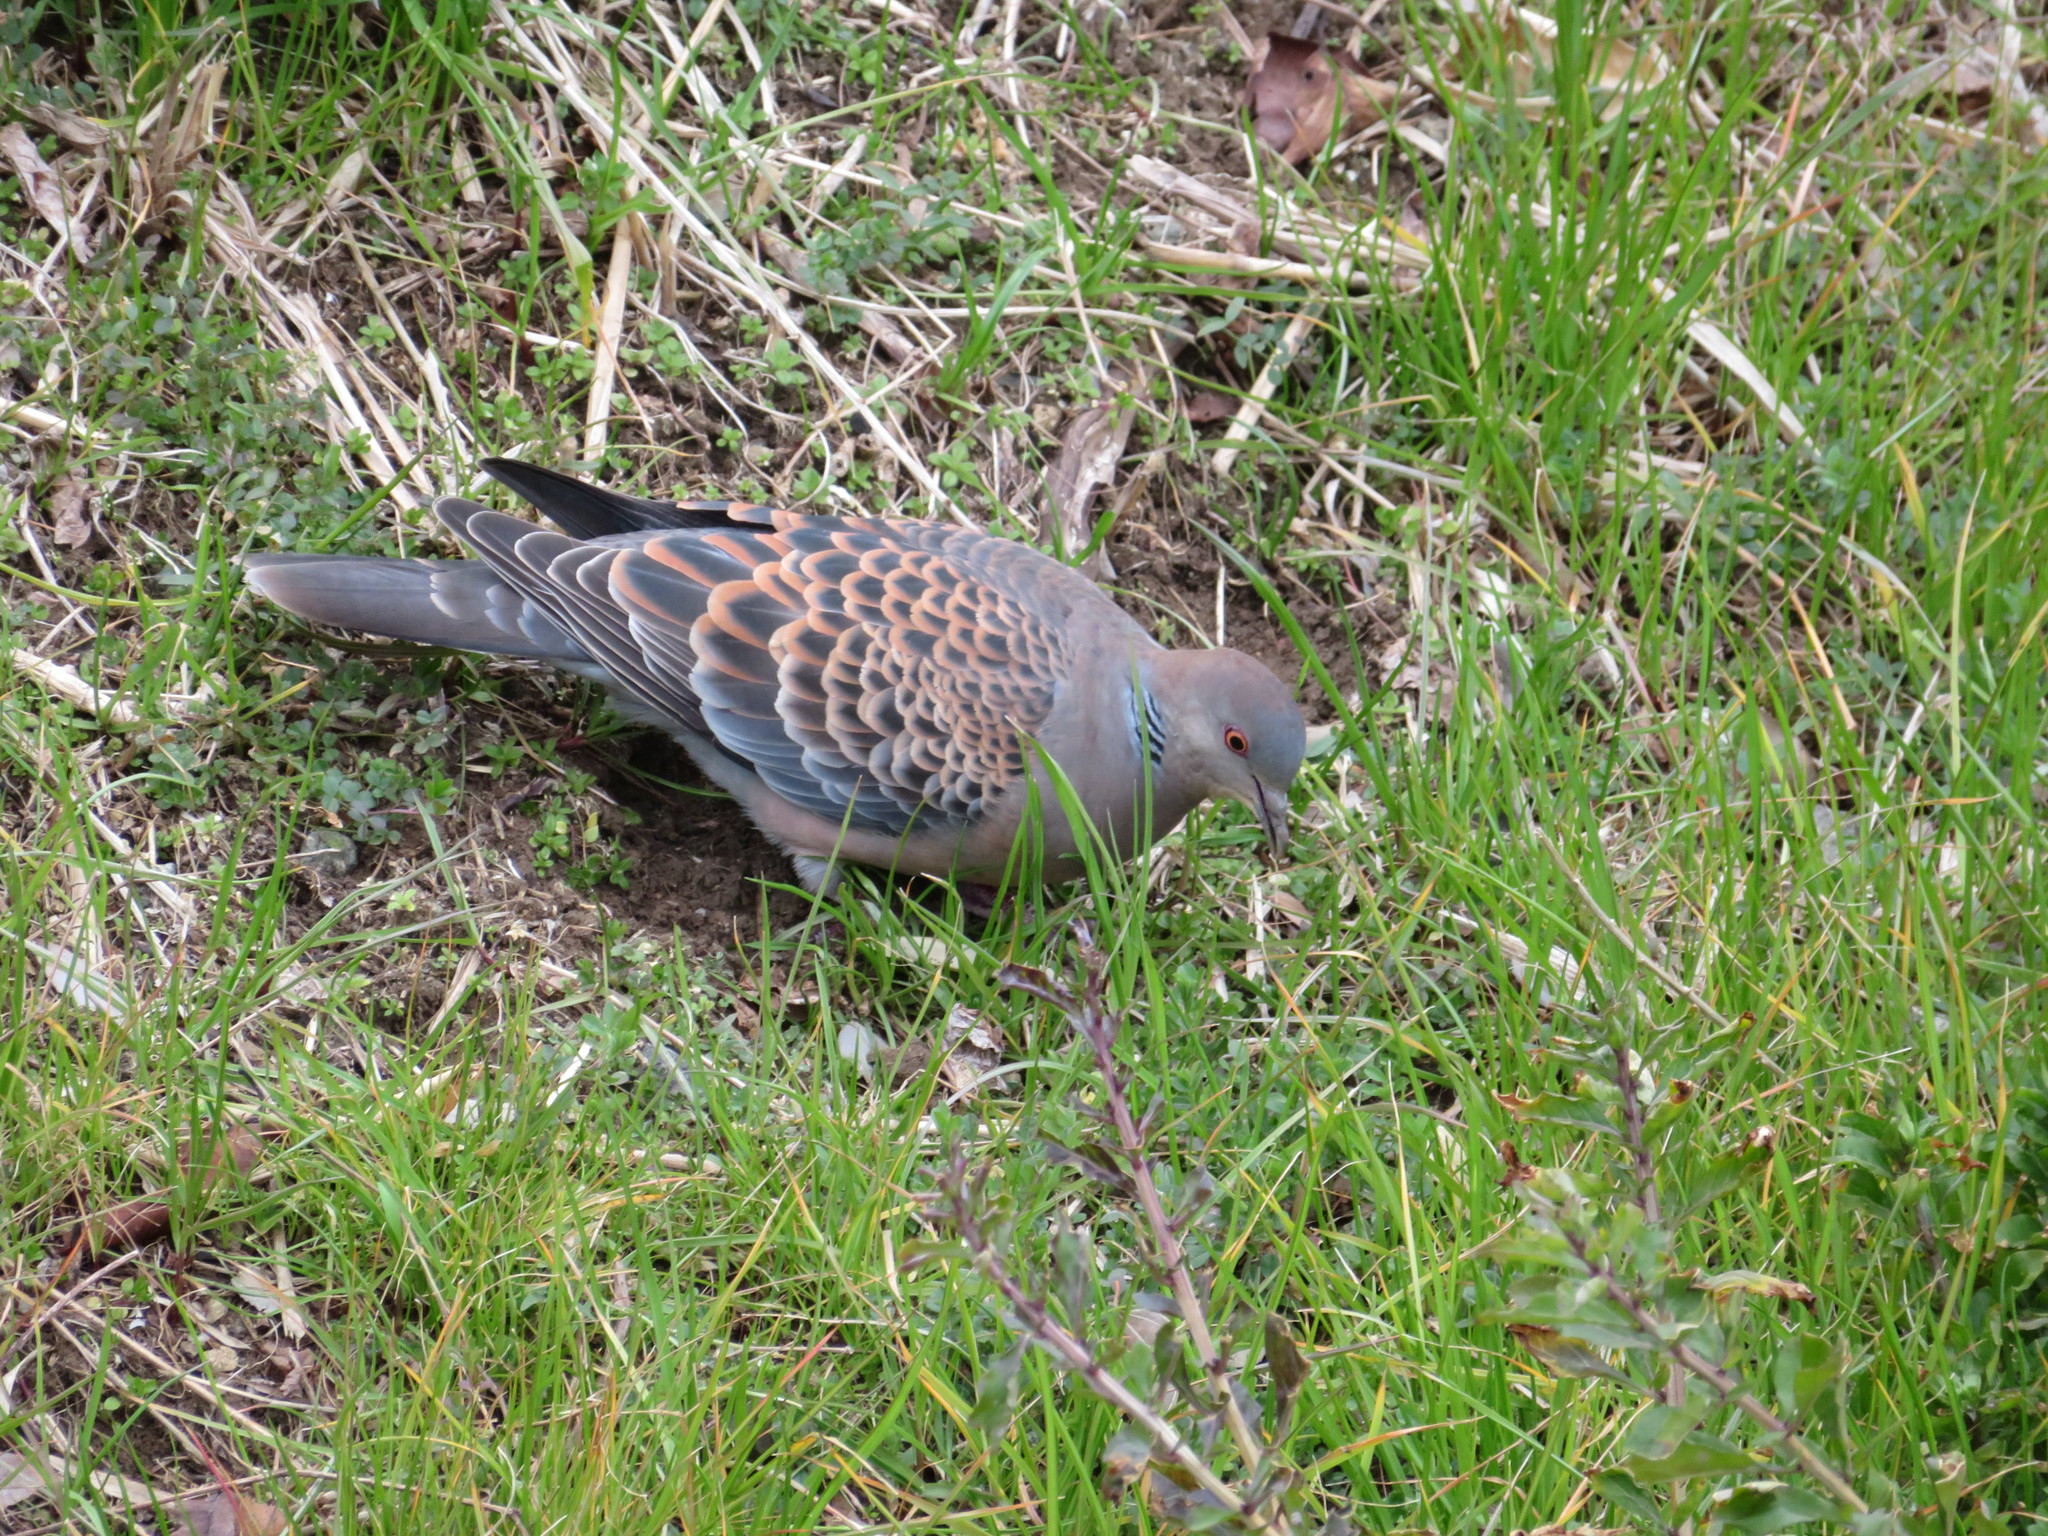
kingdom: Animalia
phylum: Chordata
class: Aves
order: Columbiformes
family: Columbidae
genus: Streptopelia
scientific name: Streptopelia orientalis
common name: Oriental turtle dove
